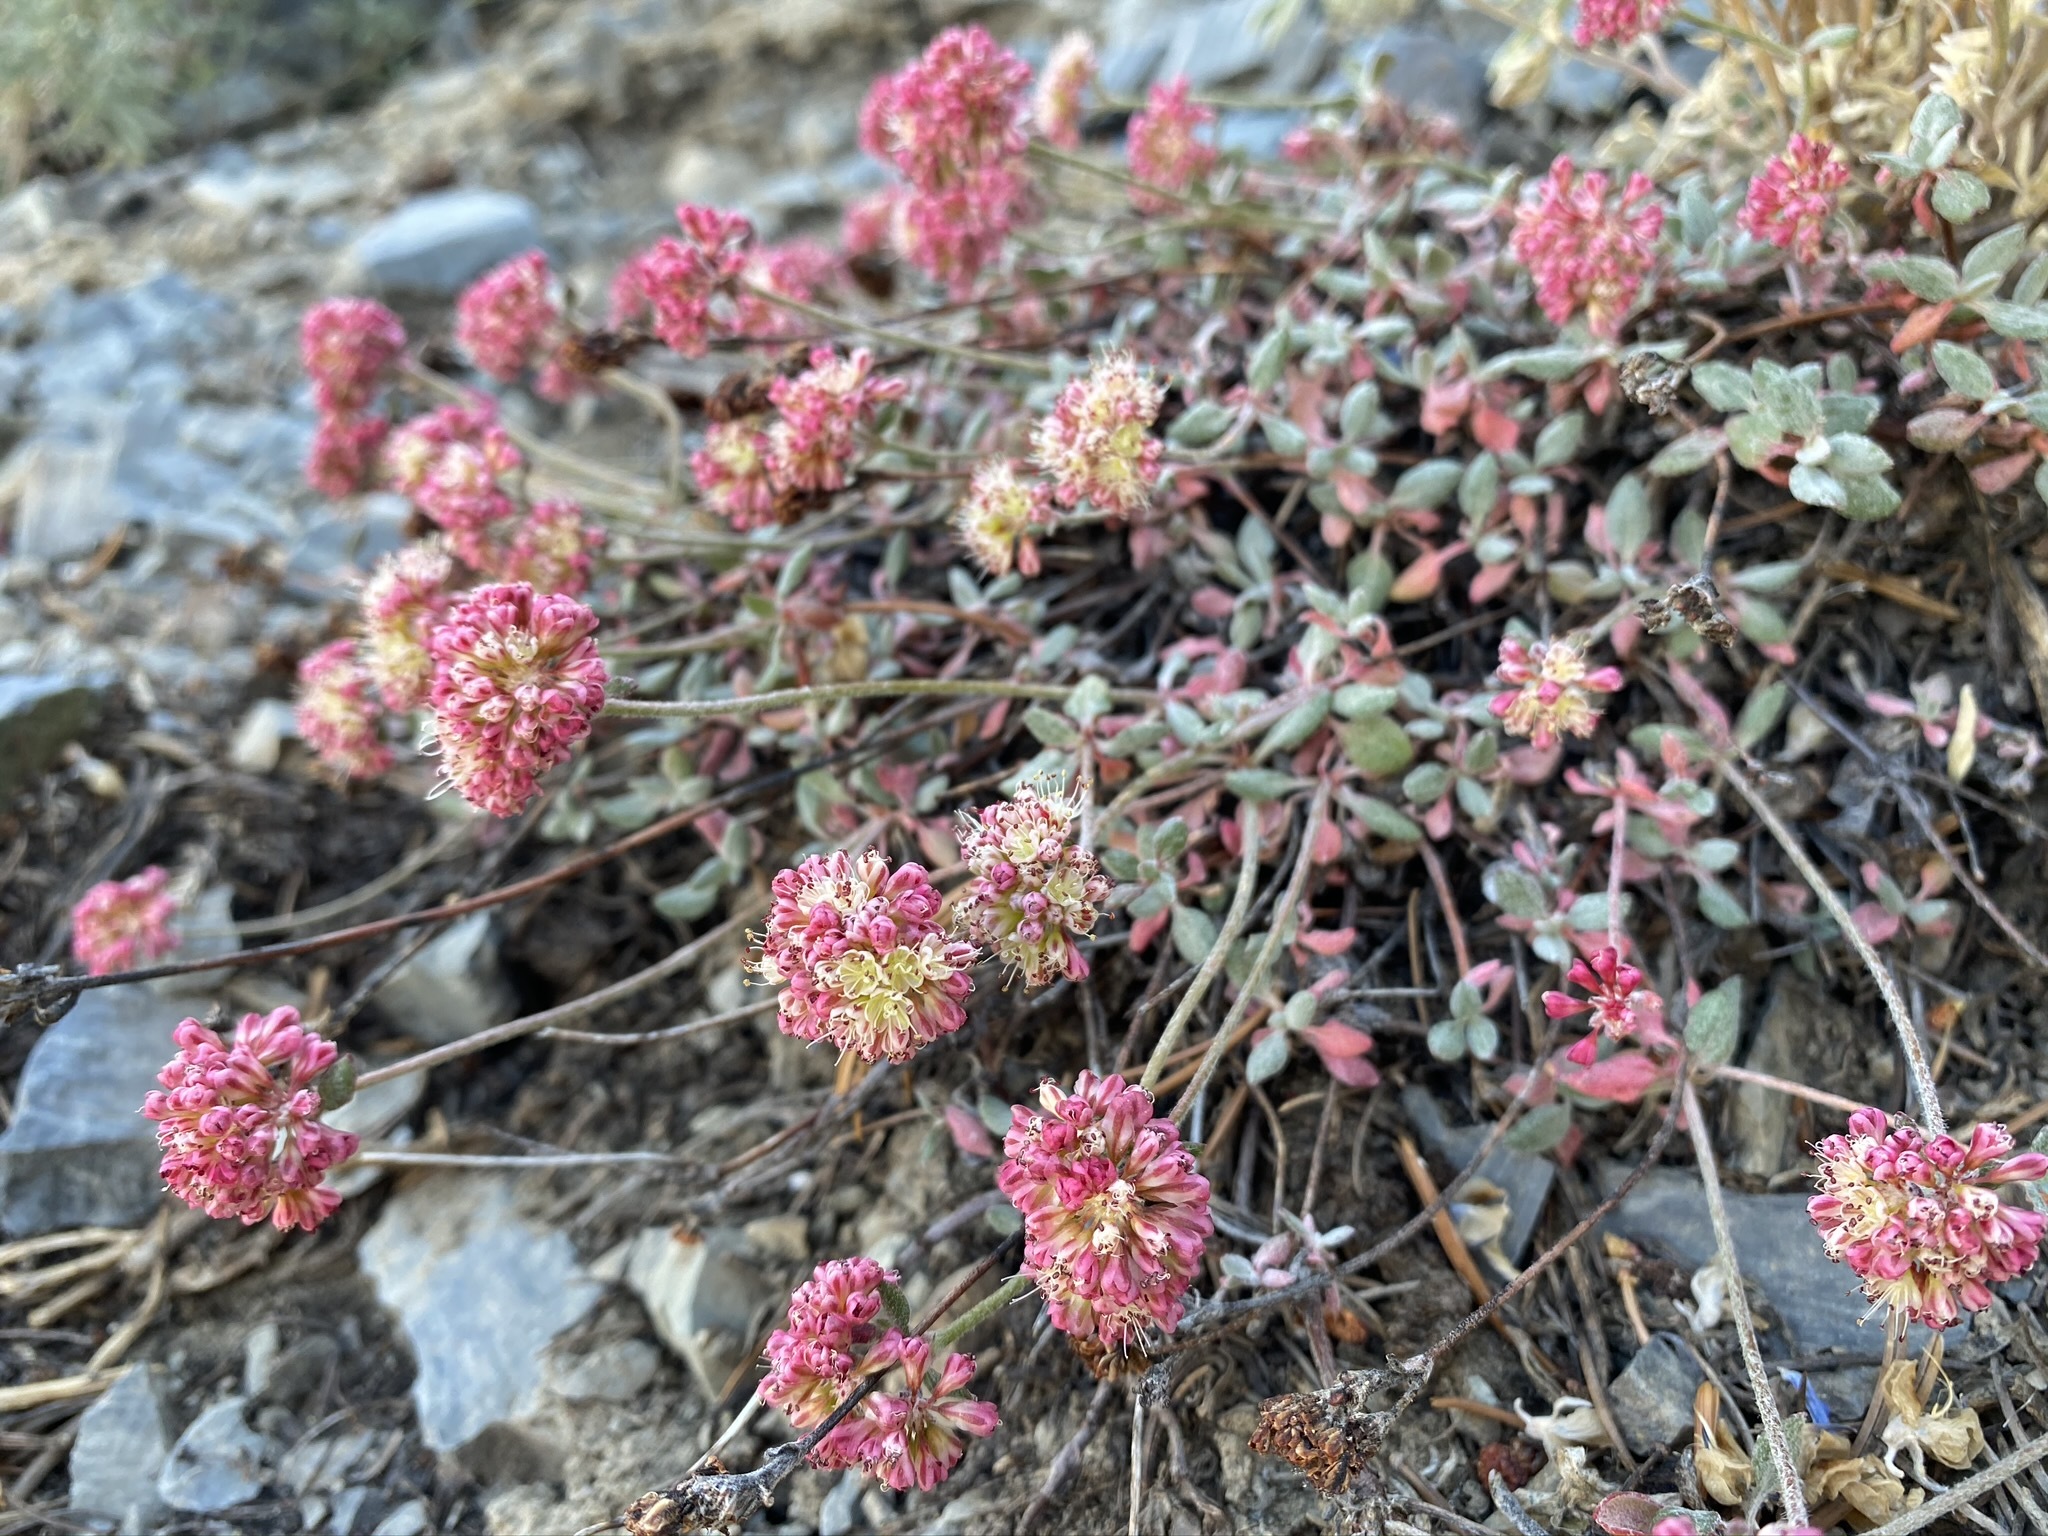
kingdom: Plantae
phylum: Tracheophyta
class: Magnoliopsida
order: Caryophyllales
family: Polygonaceae
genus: Eriogonum
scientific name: Eriogonum umbellatum
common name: Sulfur-buckwheat
